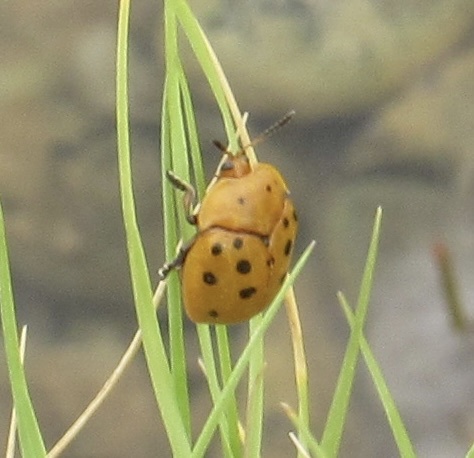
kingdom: Animalia
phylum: Arthropoda
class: Insecta
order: Coleoptera
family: Chrysomelidae
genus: Chelymorpha
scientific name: Chelymorpha cassidea
